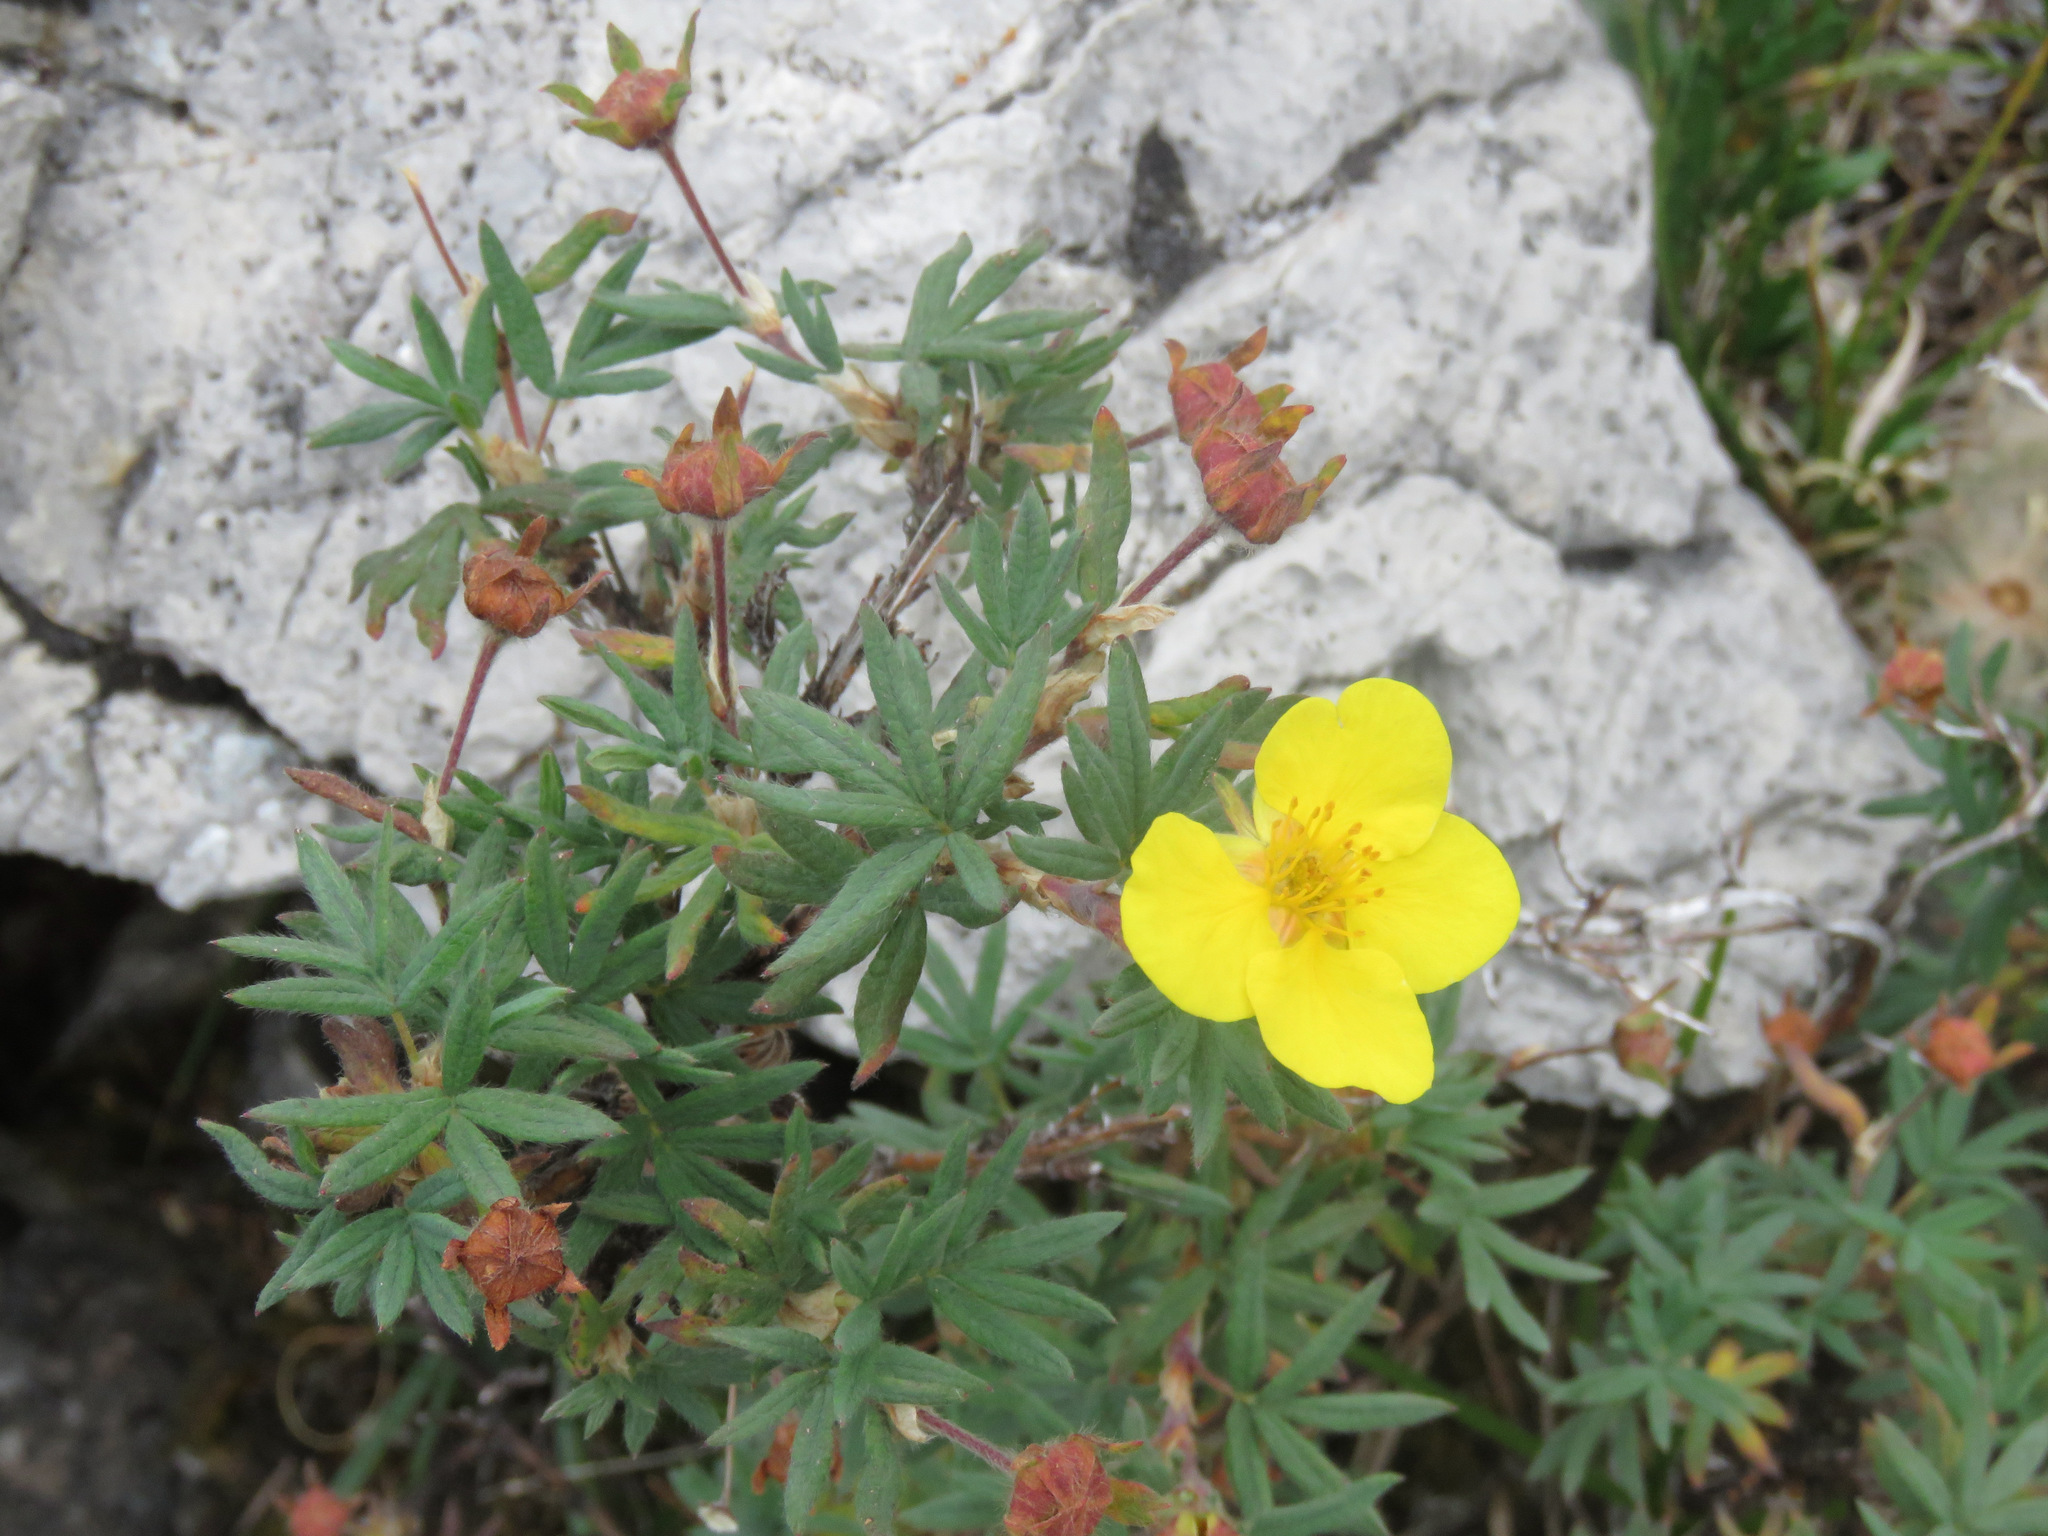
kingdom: Plantae
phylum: Tracheophyta
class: Magnoliopsida
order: Rosales
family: Rosaceae
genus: Dasiphora
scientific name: Dasiphora fruticosa
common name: Shrubby cinquefoil
